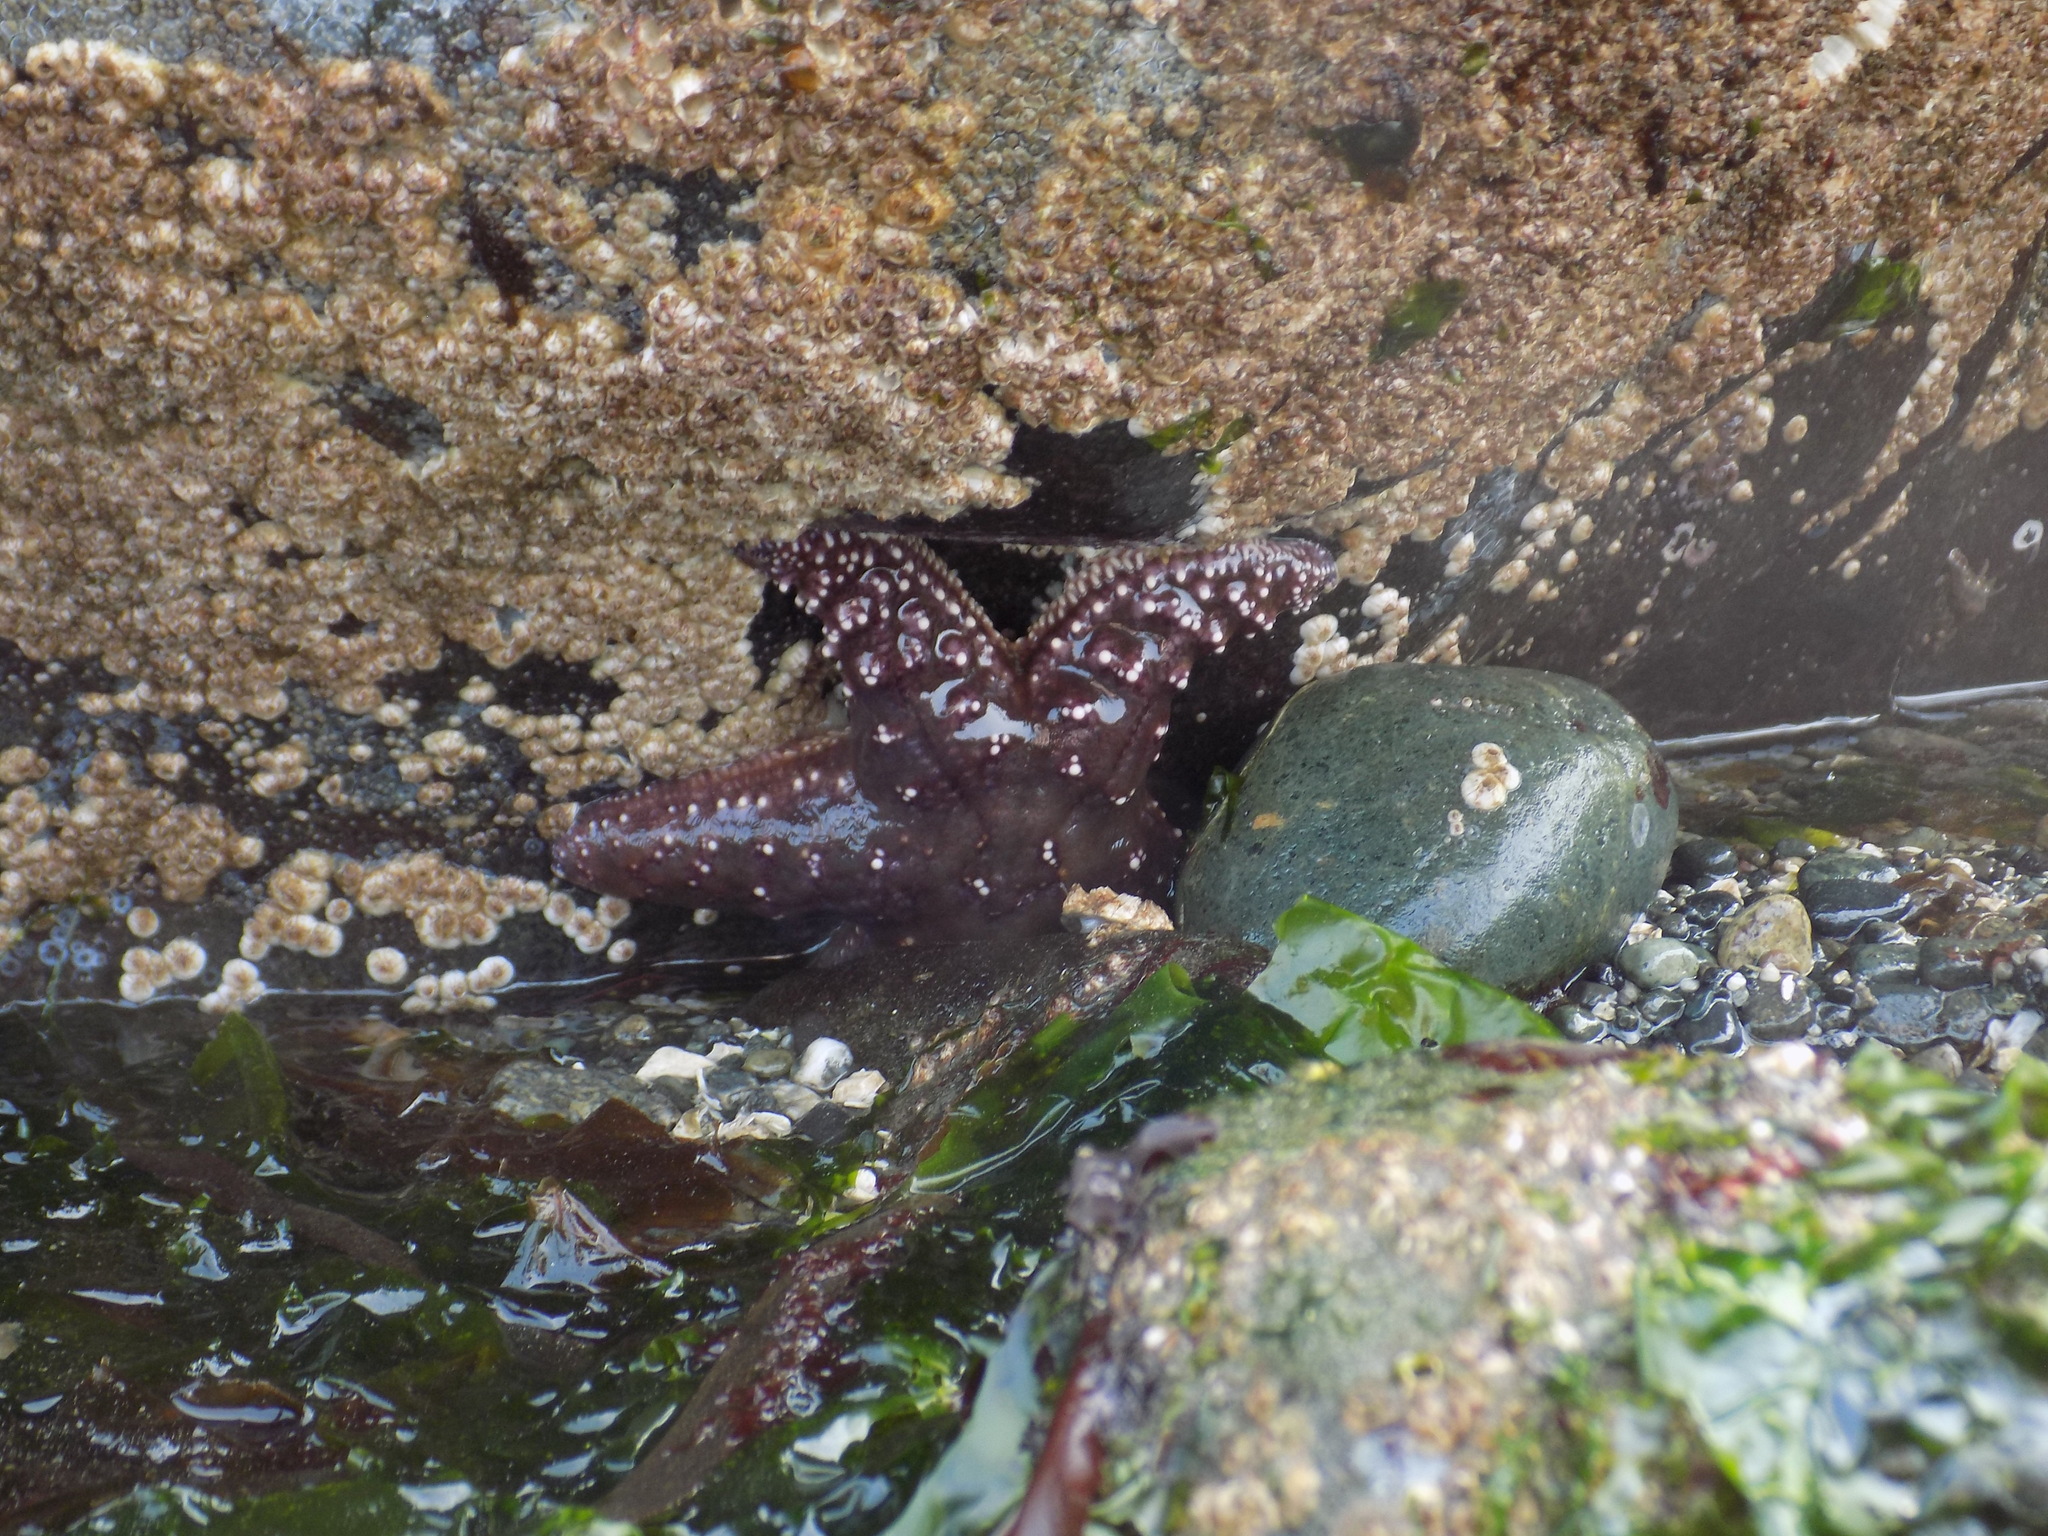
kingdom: Animalia
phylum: Echinodermata
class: Asteroidea
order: Forcipulatida
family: Asteriidae
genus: Pisaster
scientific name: Pisaster ochraceus
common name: Ochre stars
